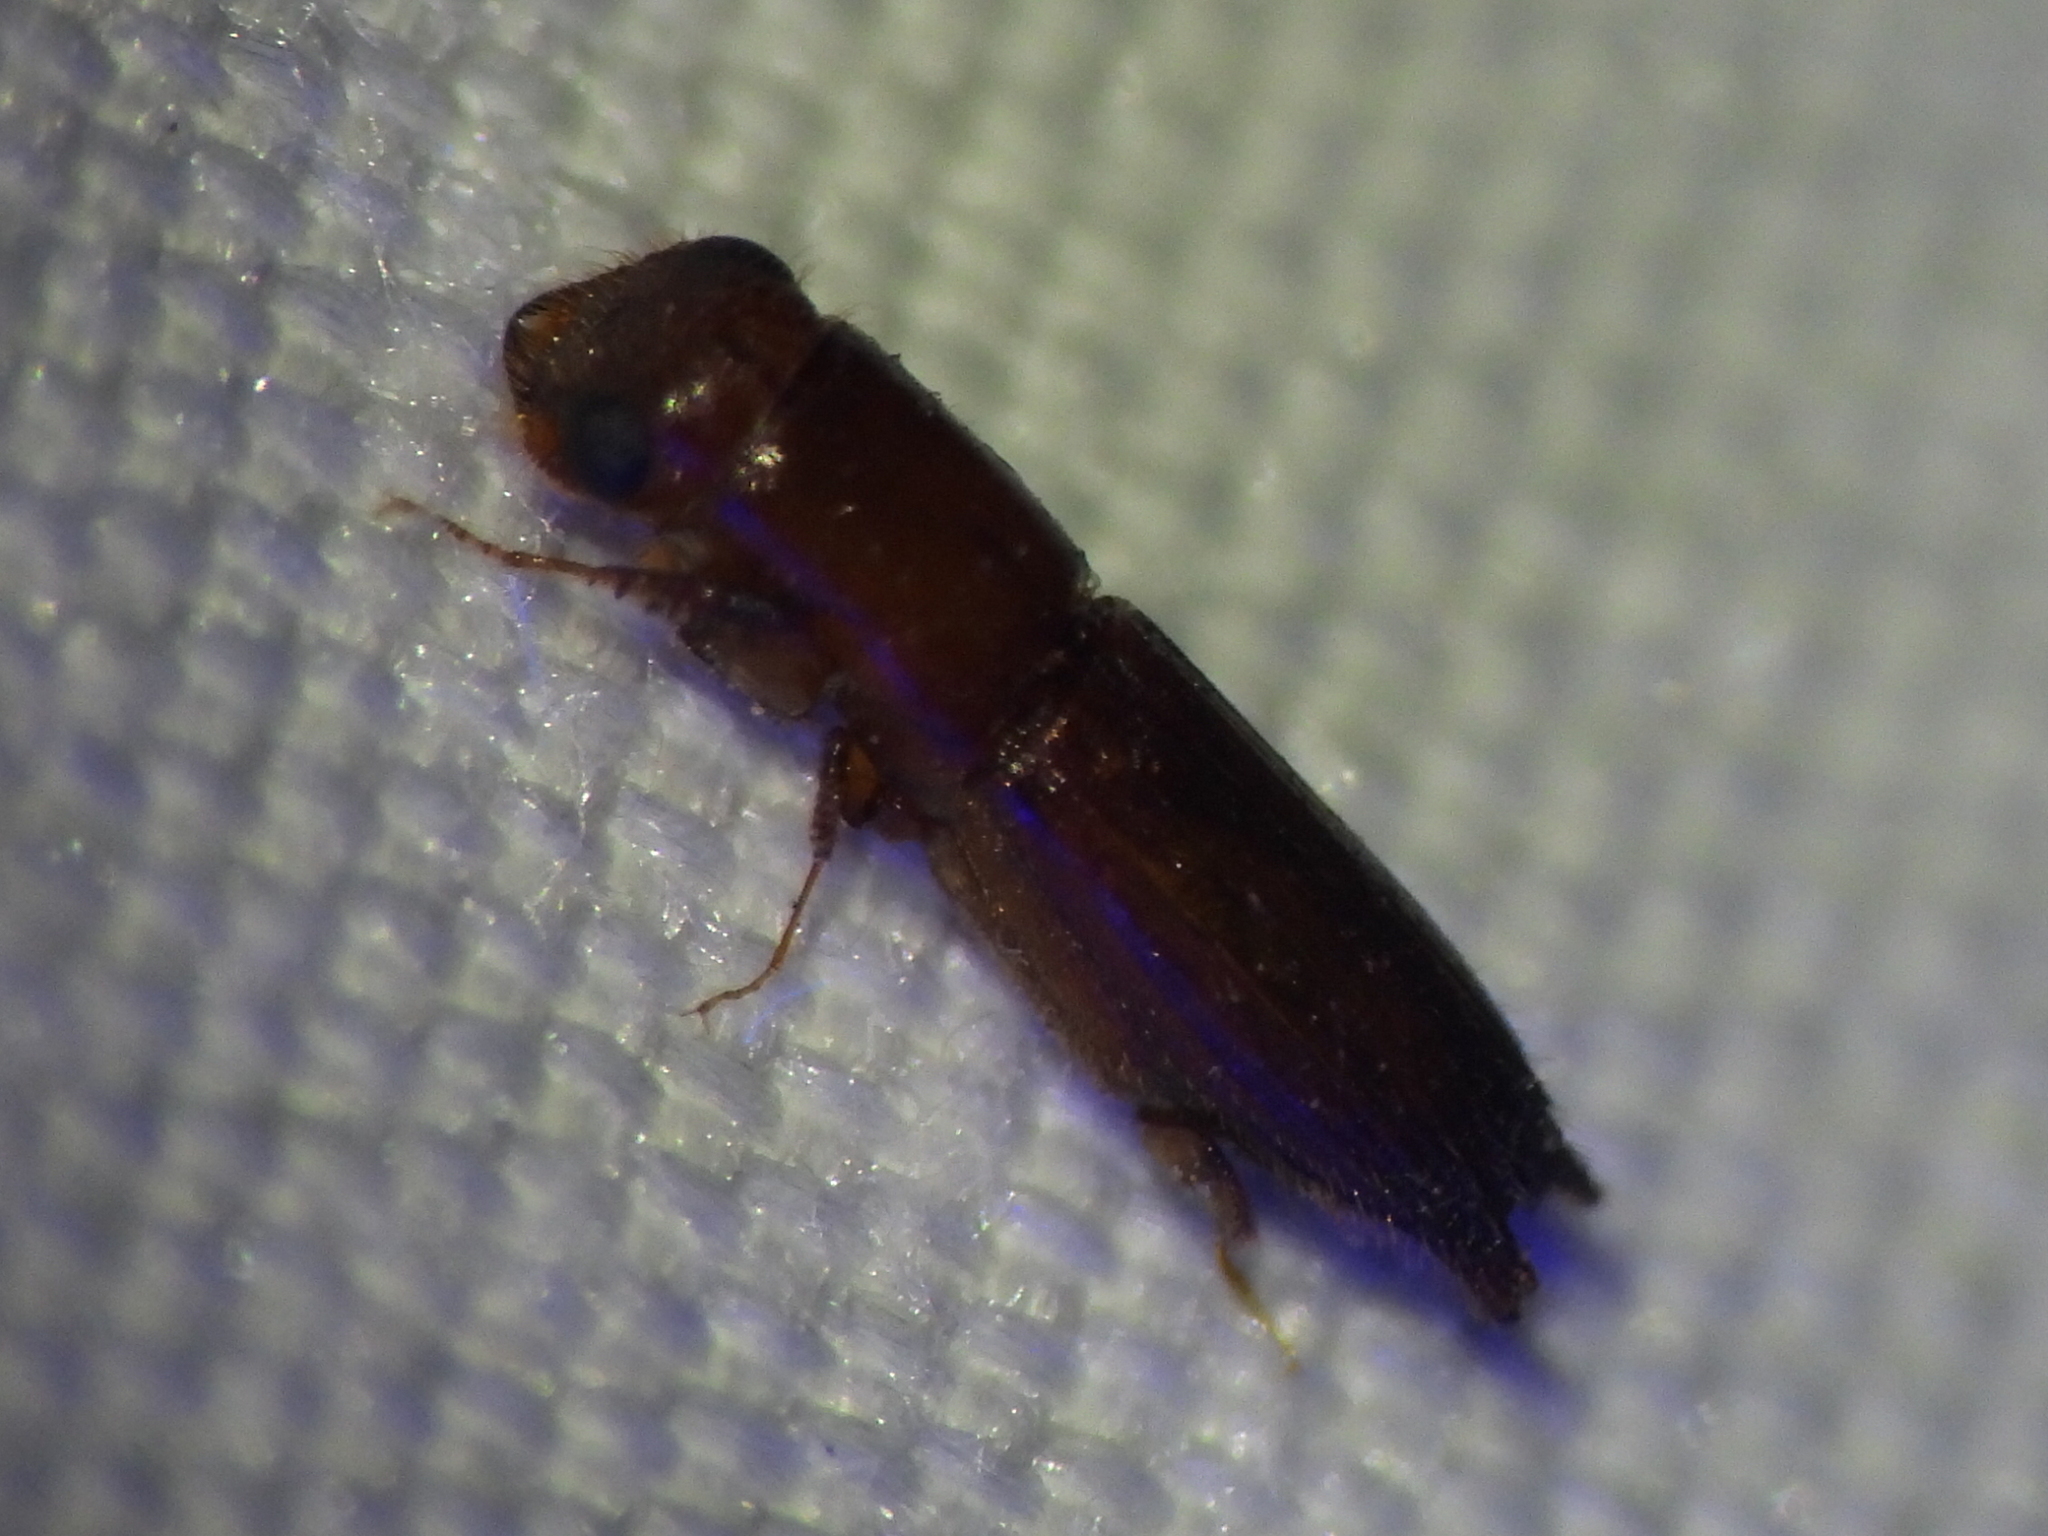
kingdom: Animalia
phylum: Arthropoda
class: Insecta
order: Coleoptera
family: Curculionidae
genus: Euplatypus
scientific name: Euplatypus compositus
